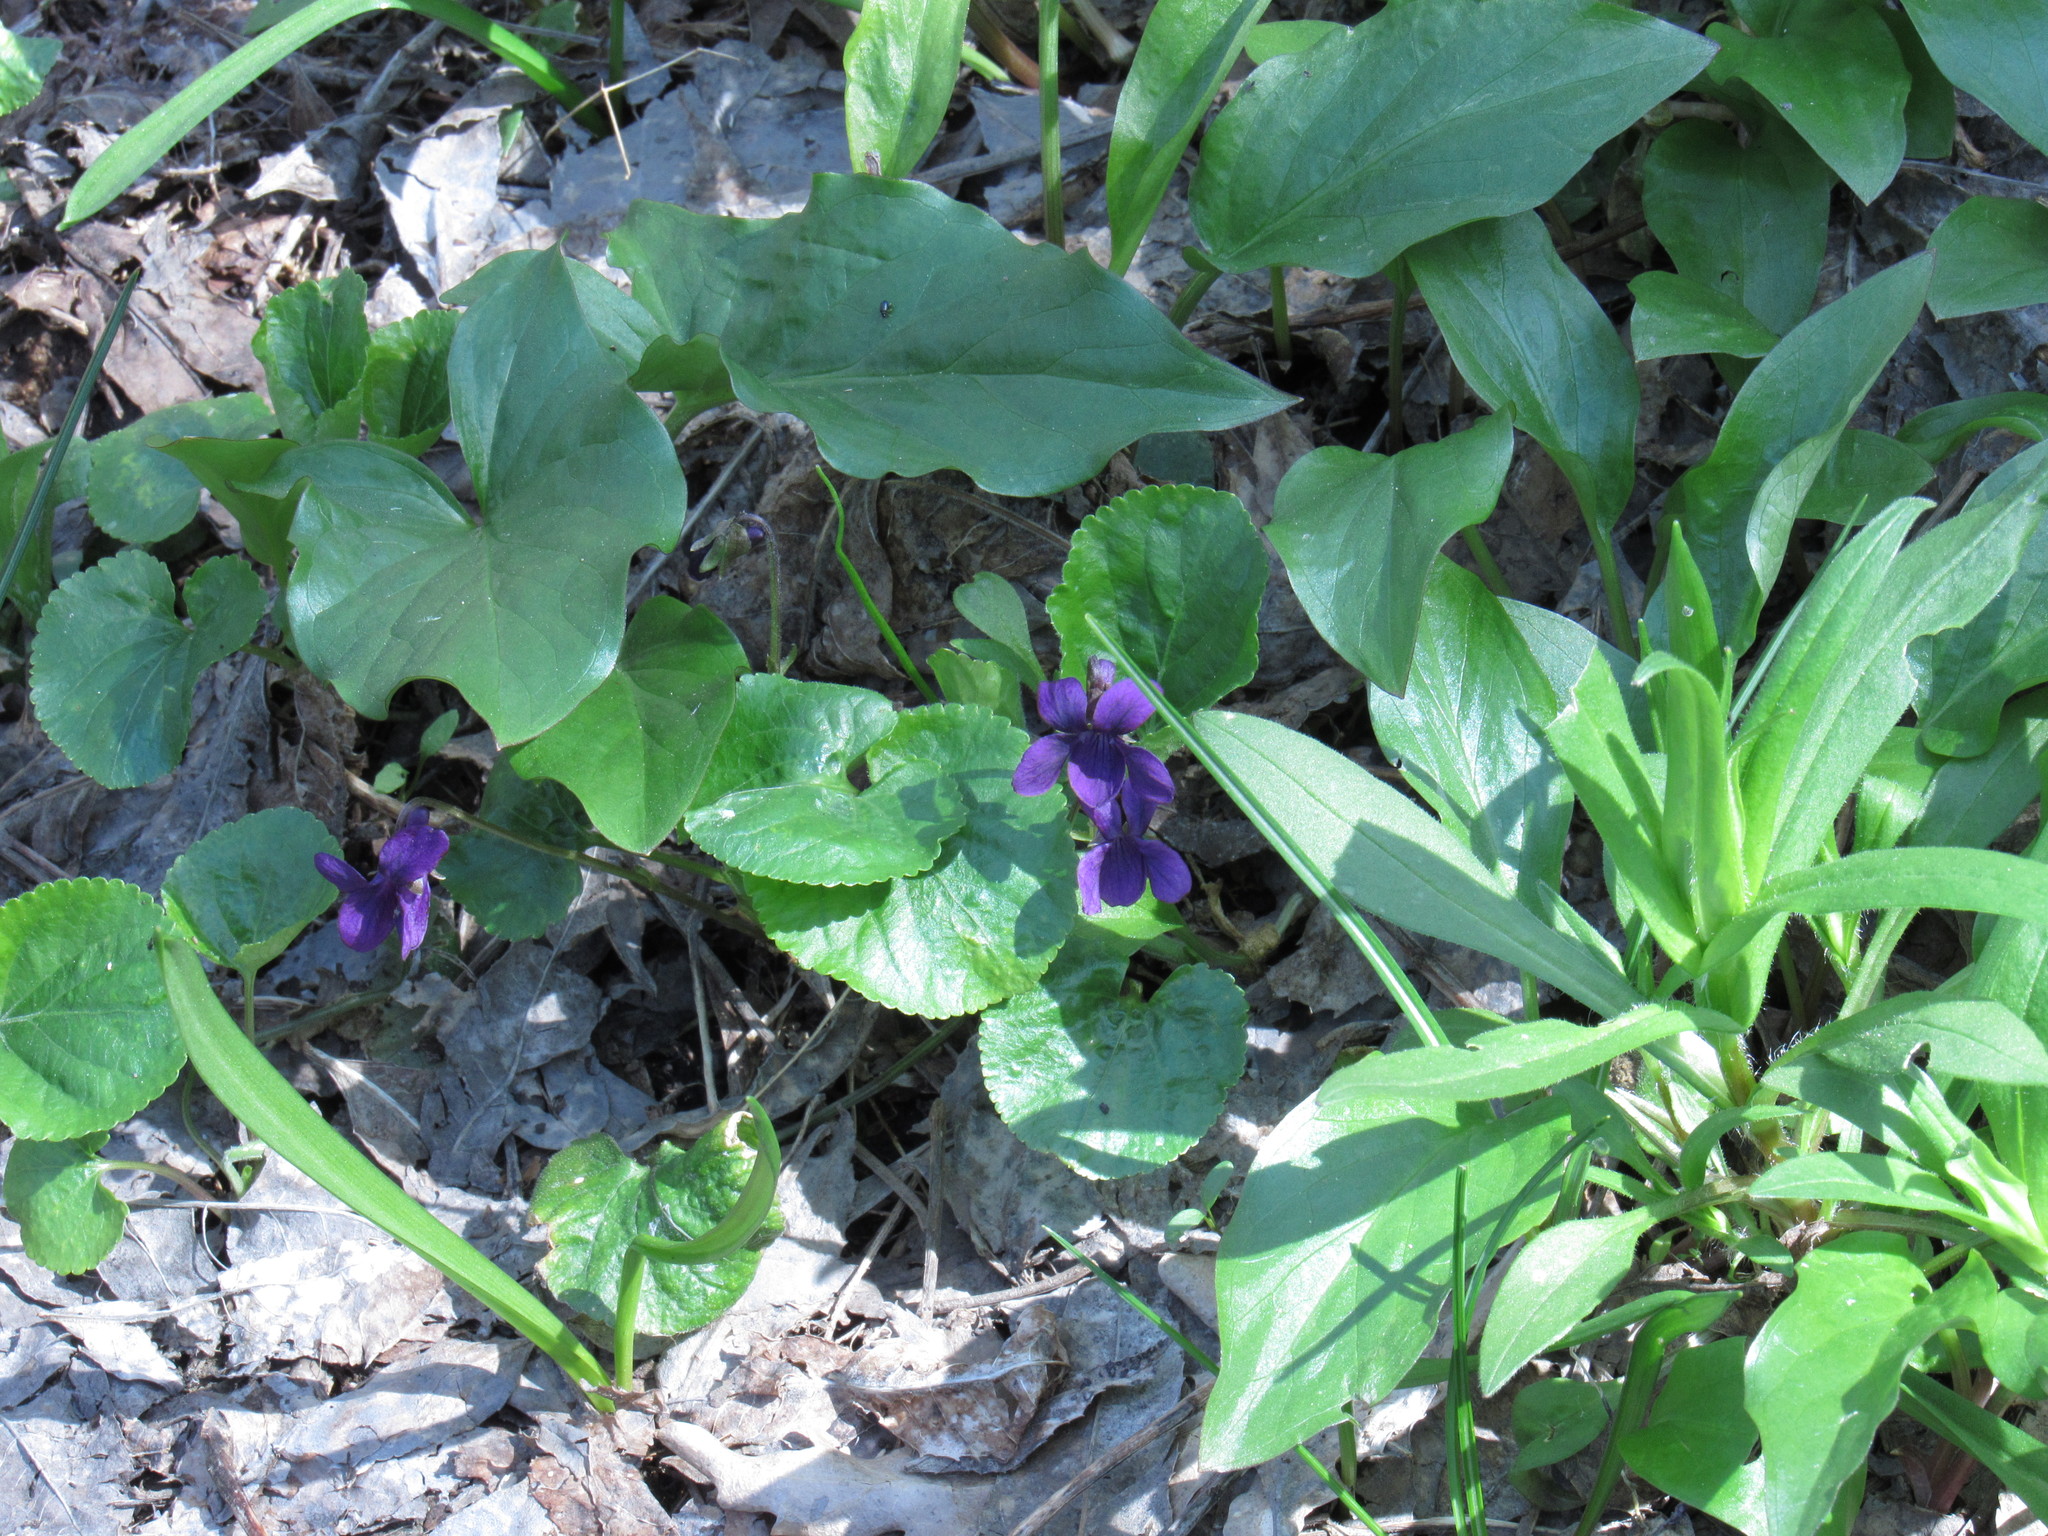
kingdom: Plantae
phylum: Tracheophyta
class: Magnoliopsida
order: Malpighiales
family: Violaceae
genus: Viola
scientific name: Viola odorata
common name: Sweet violet
